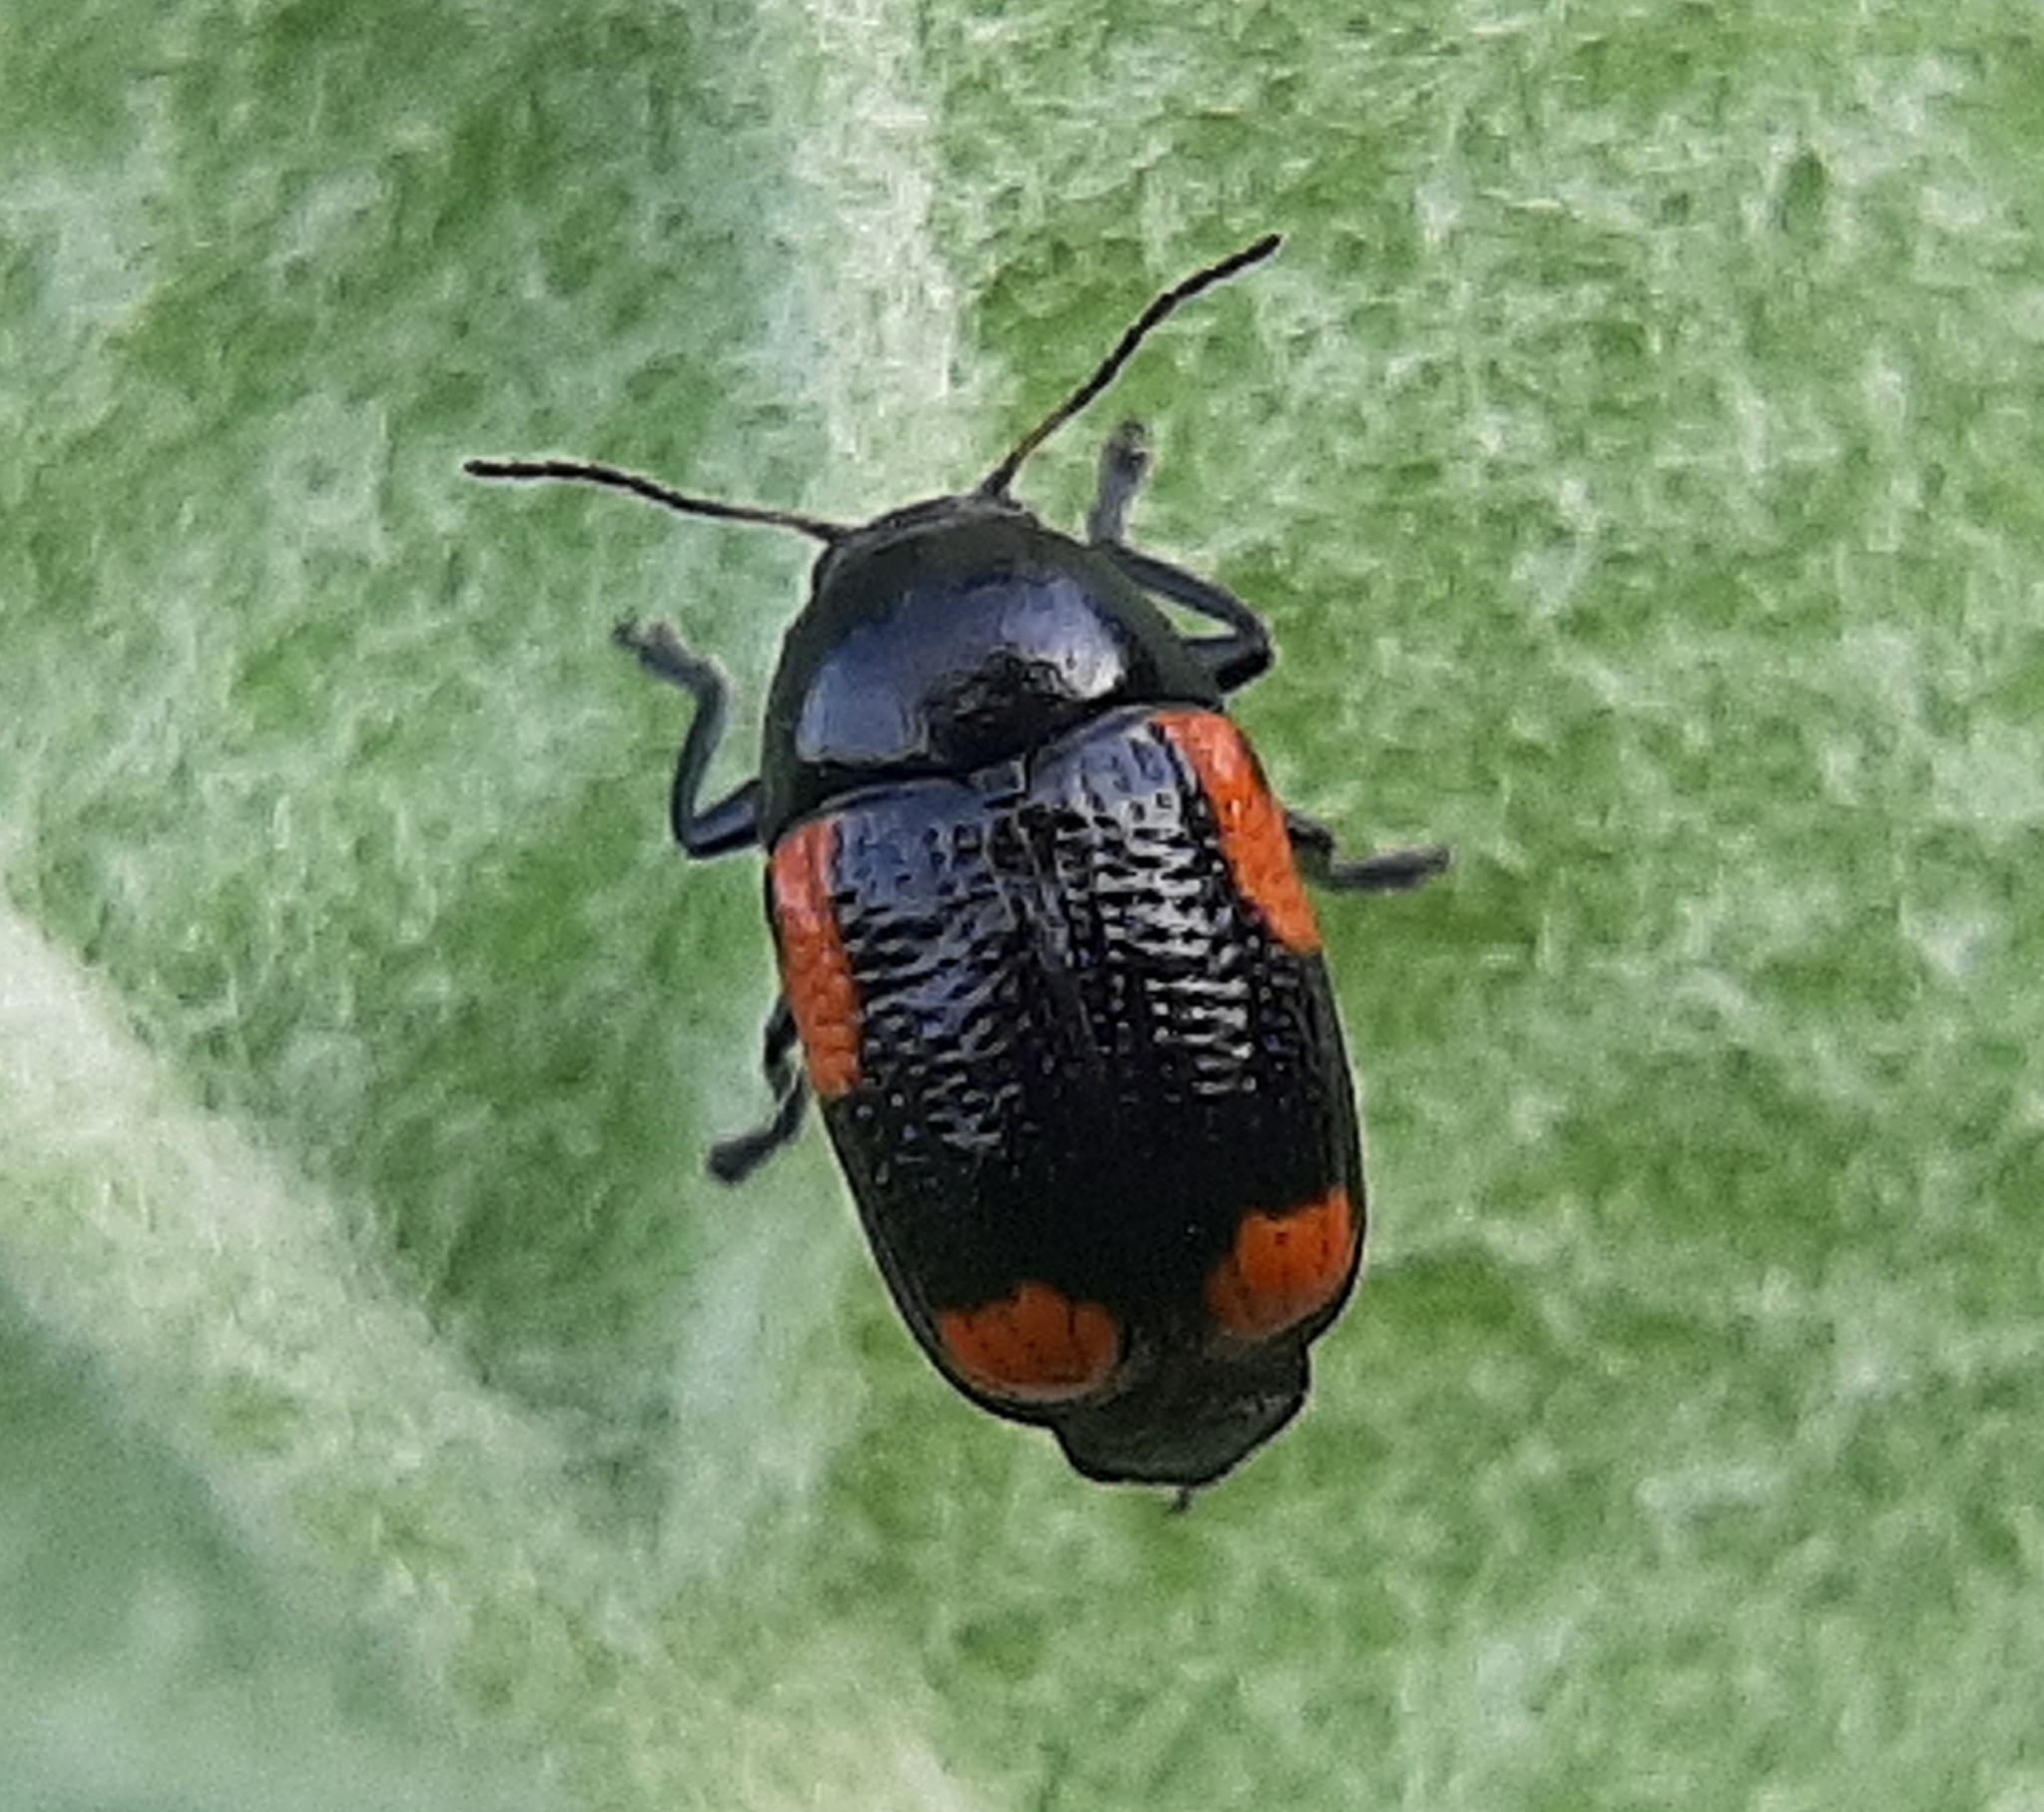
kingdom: Animalia
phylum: Arthropoda
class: Insecta
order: Coleoptera
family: Chrysomelidae
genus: Cryptocephalus
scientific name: Cryptocephalus notatus
